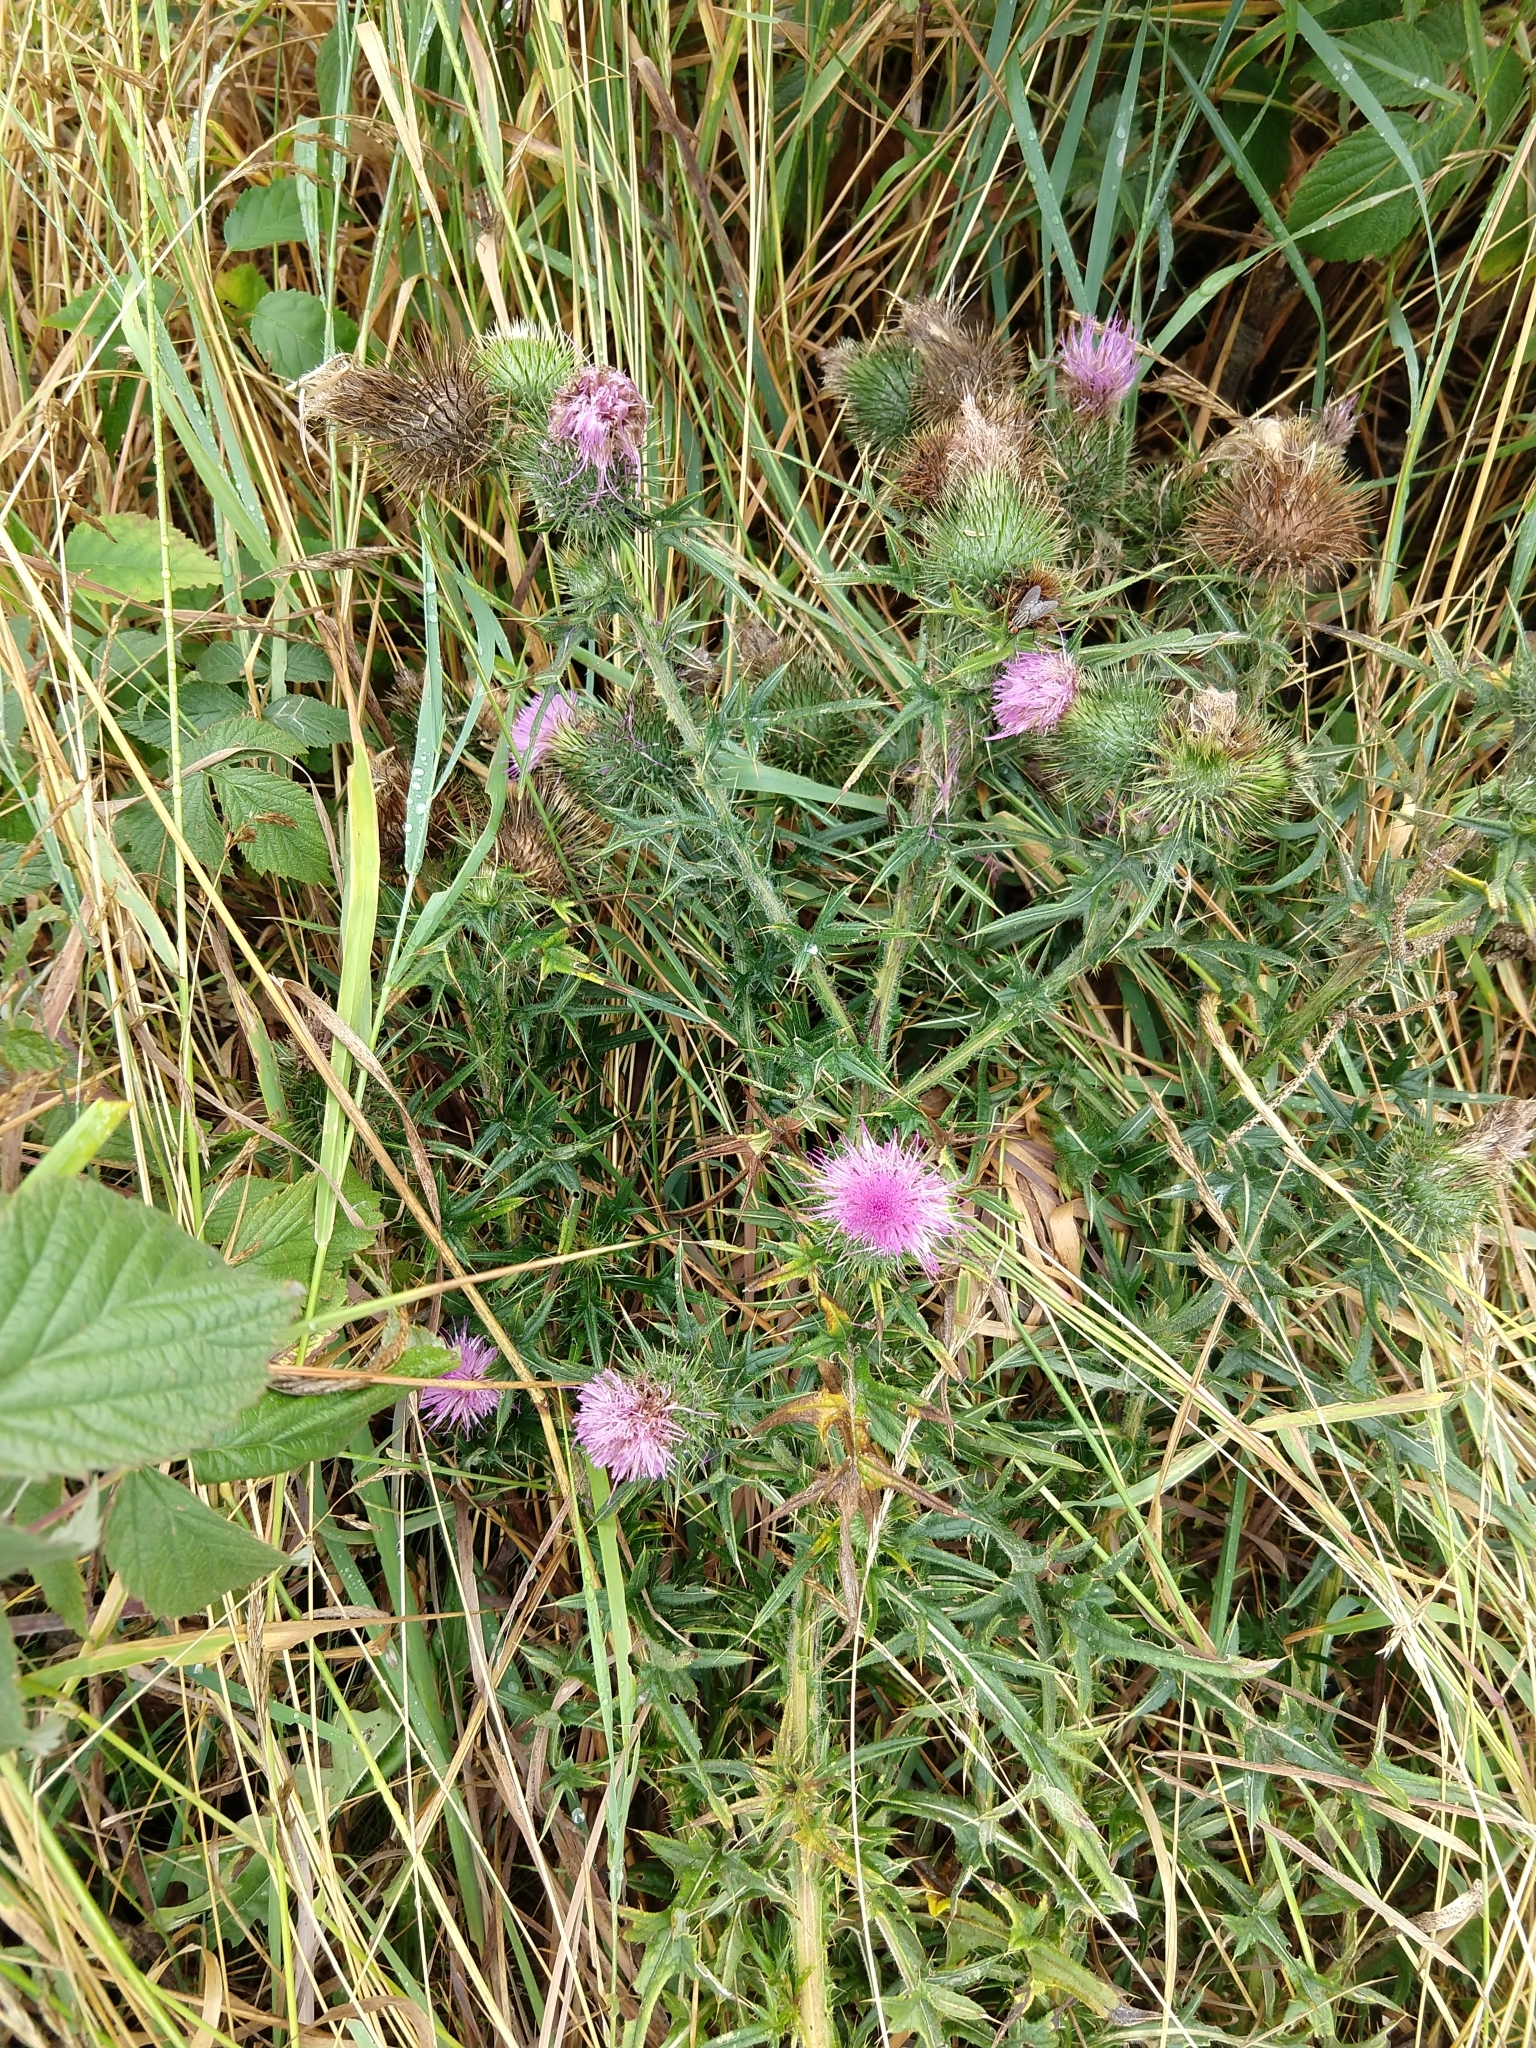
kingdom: Plantae
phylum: Tracheophyta
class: Magnoliopsida
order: Asterales
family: Asteraceae
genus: Cirsium
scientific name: Cirsium vulgare
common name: Bull thistle
